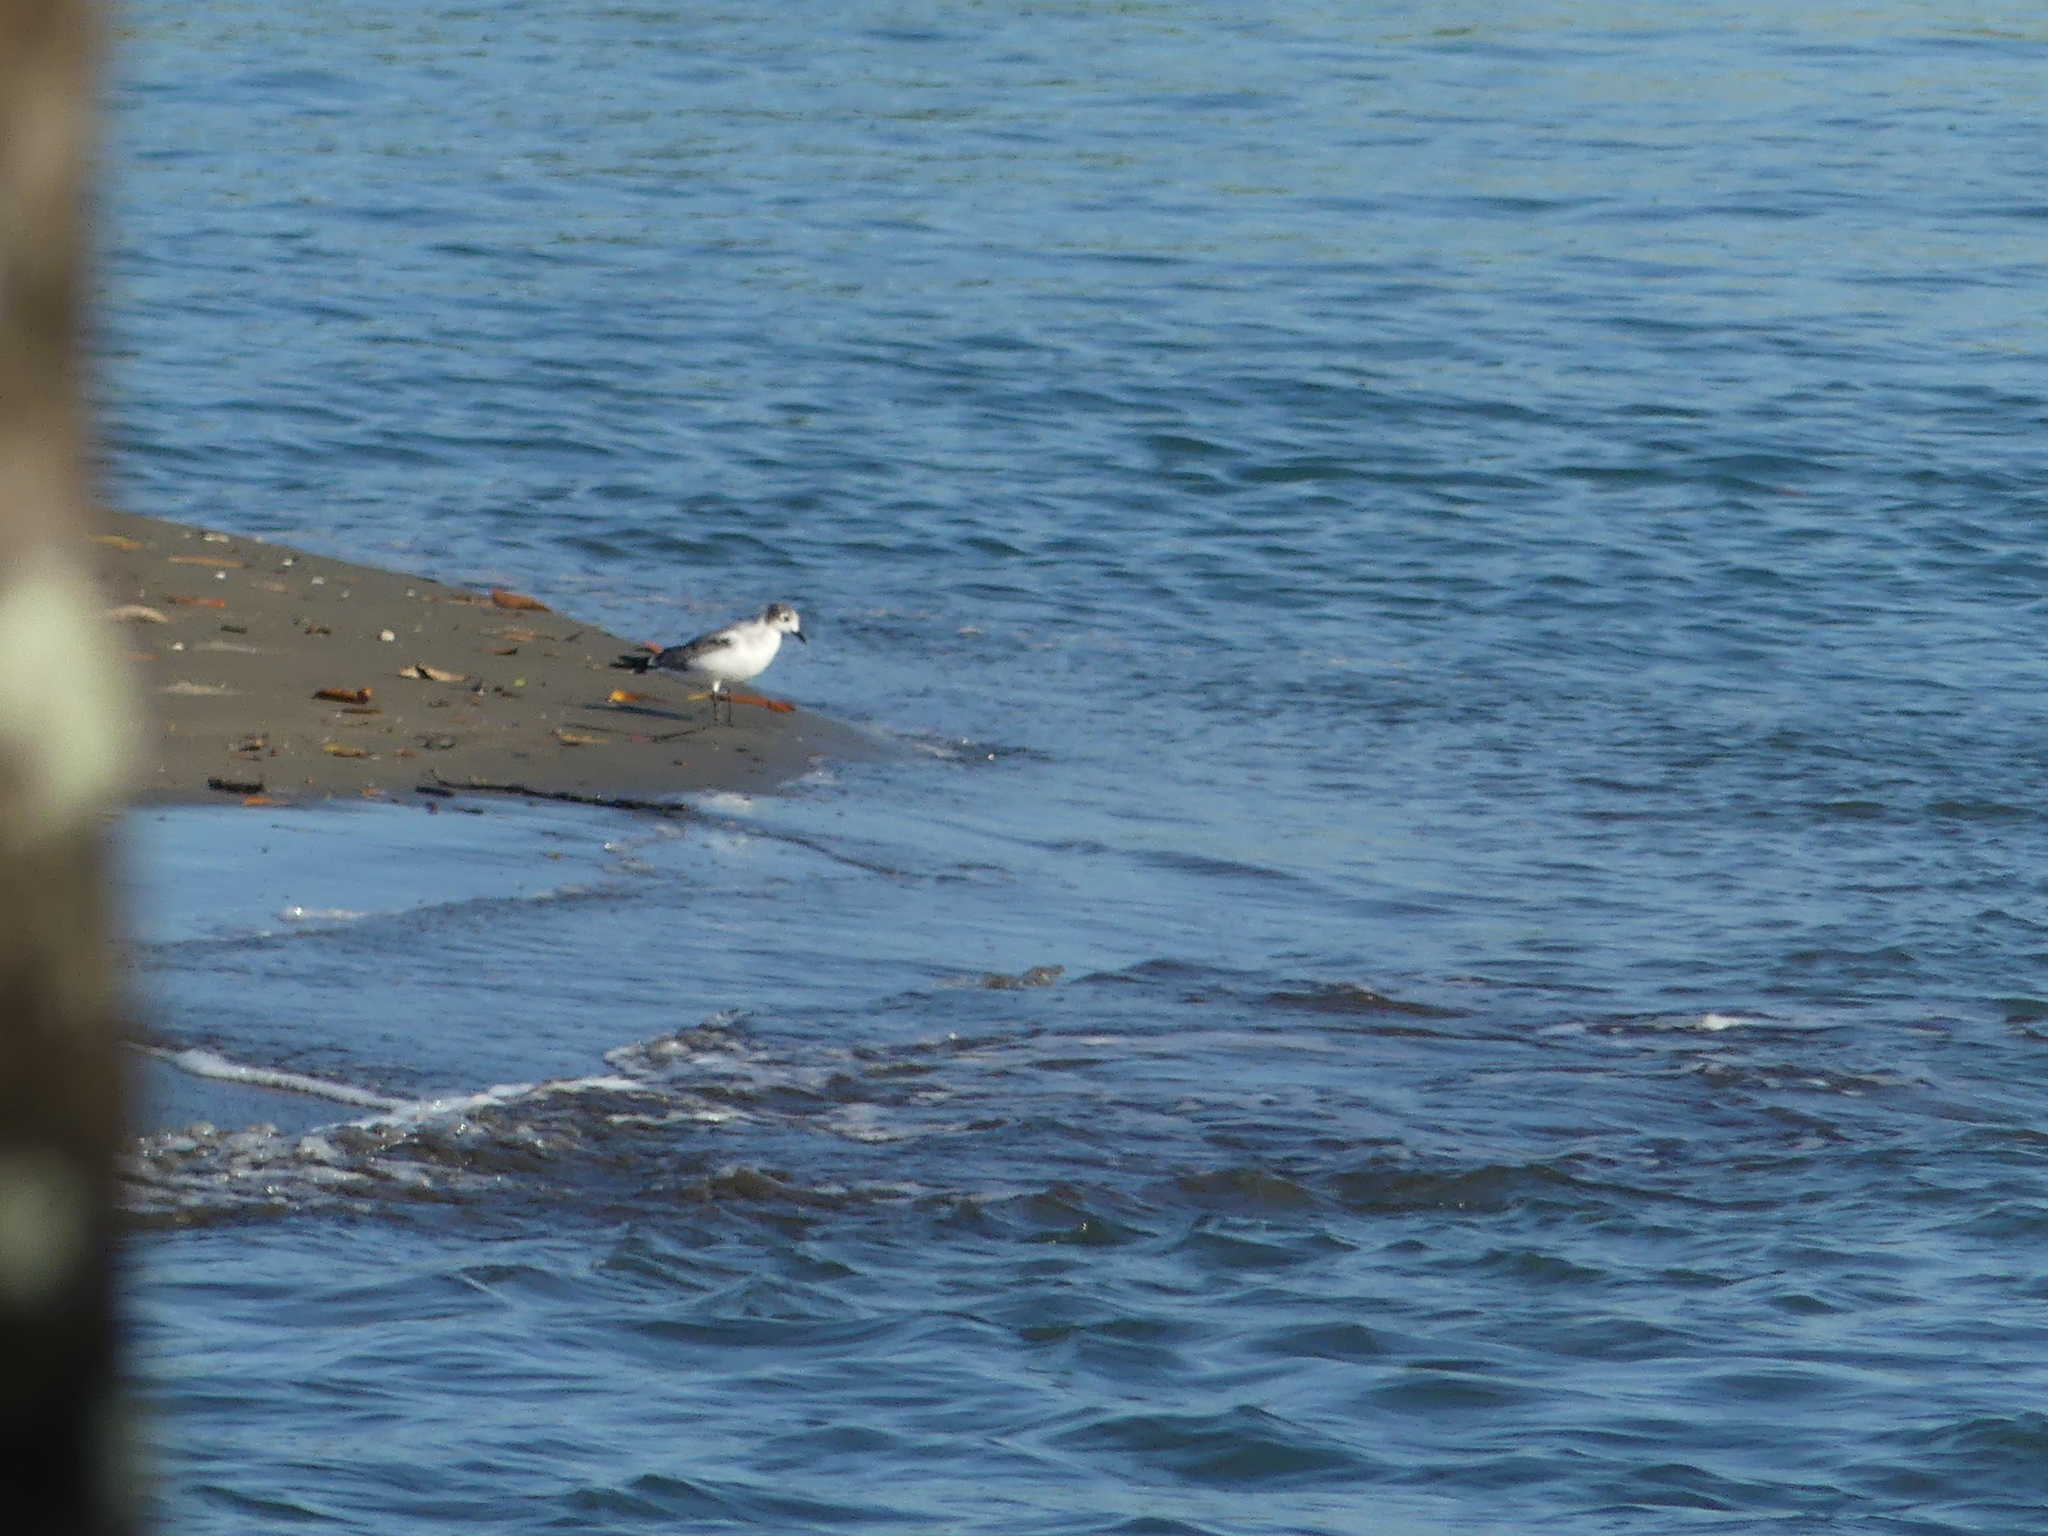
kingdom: Animalia
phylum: Chordata
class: Aves
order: Charadriiformes
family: Laridae
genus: Leucophaeus
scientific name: Leucophaeus atricilla
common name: Laughing gull
